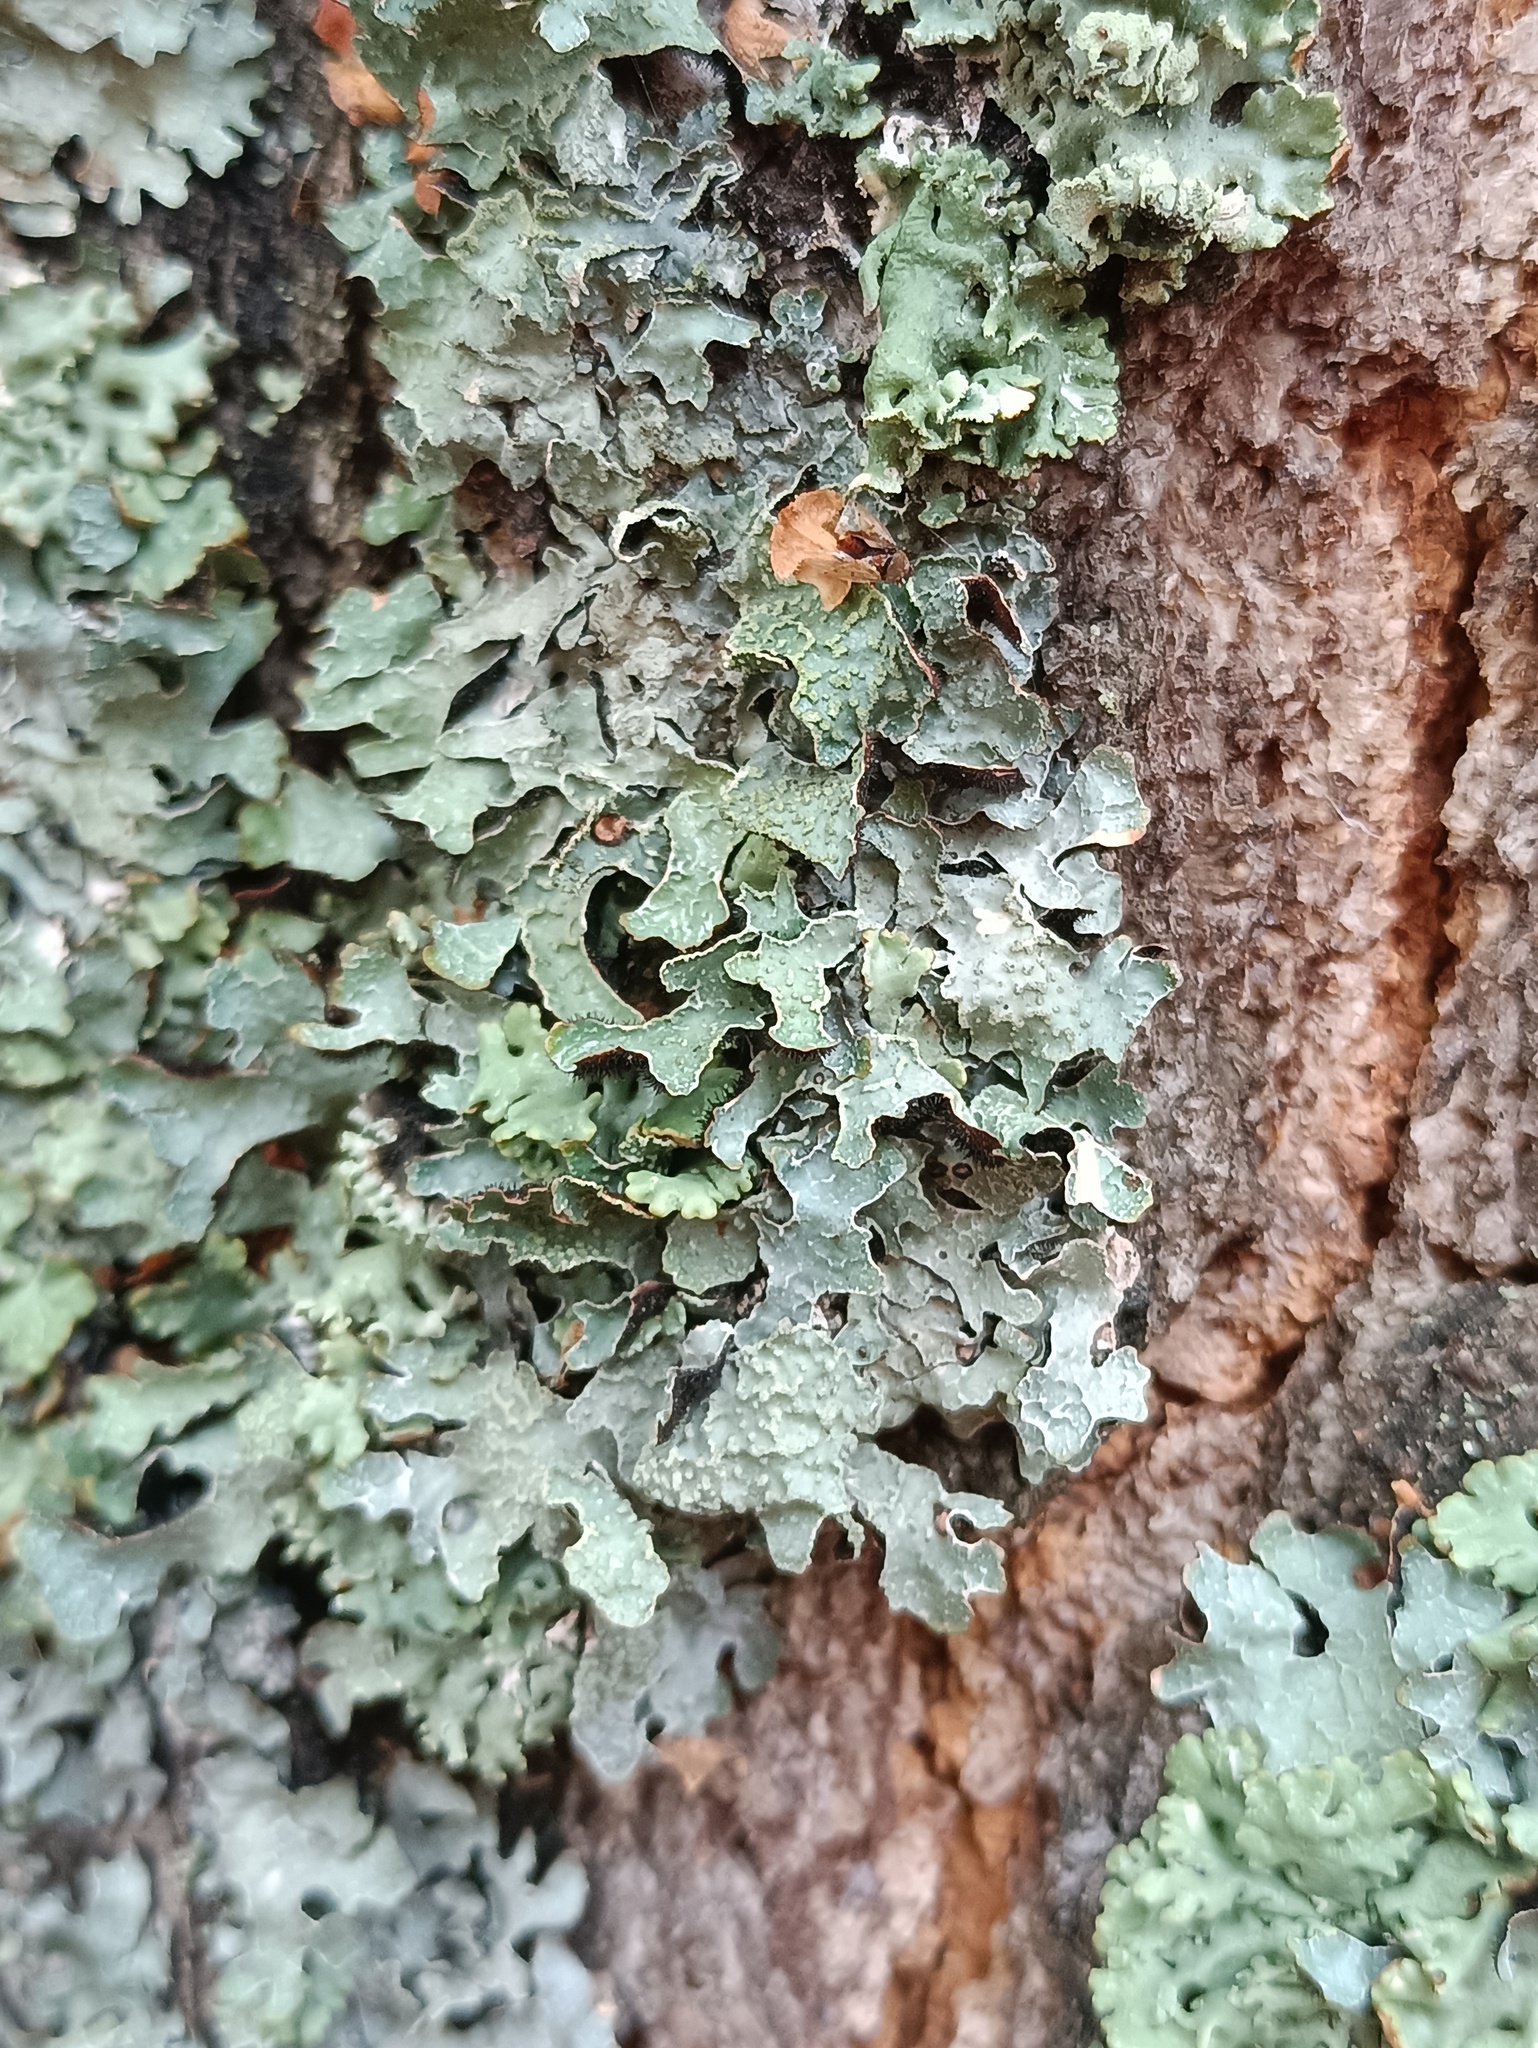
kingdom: Fungi
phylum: Ascomycota
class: Lecanoromycetes
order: Lecanorales
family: Parmeliaceae
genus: Parmelia
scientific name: Parmelia sulcata
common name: Netted shield lichen
